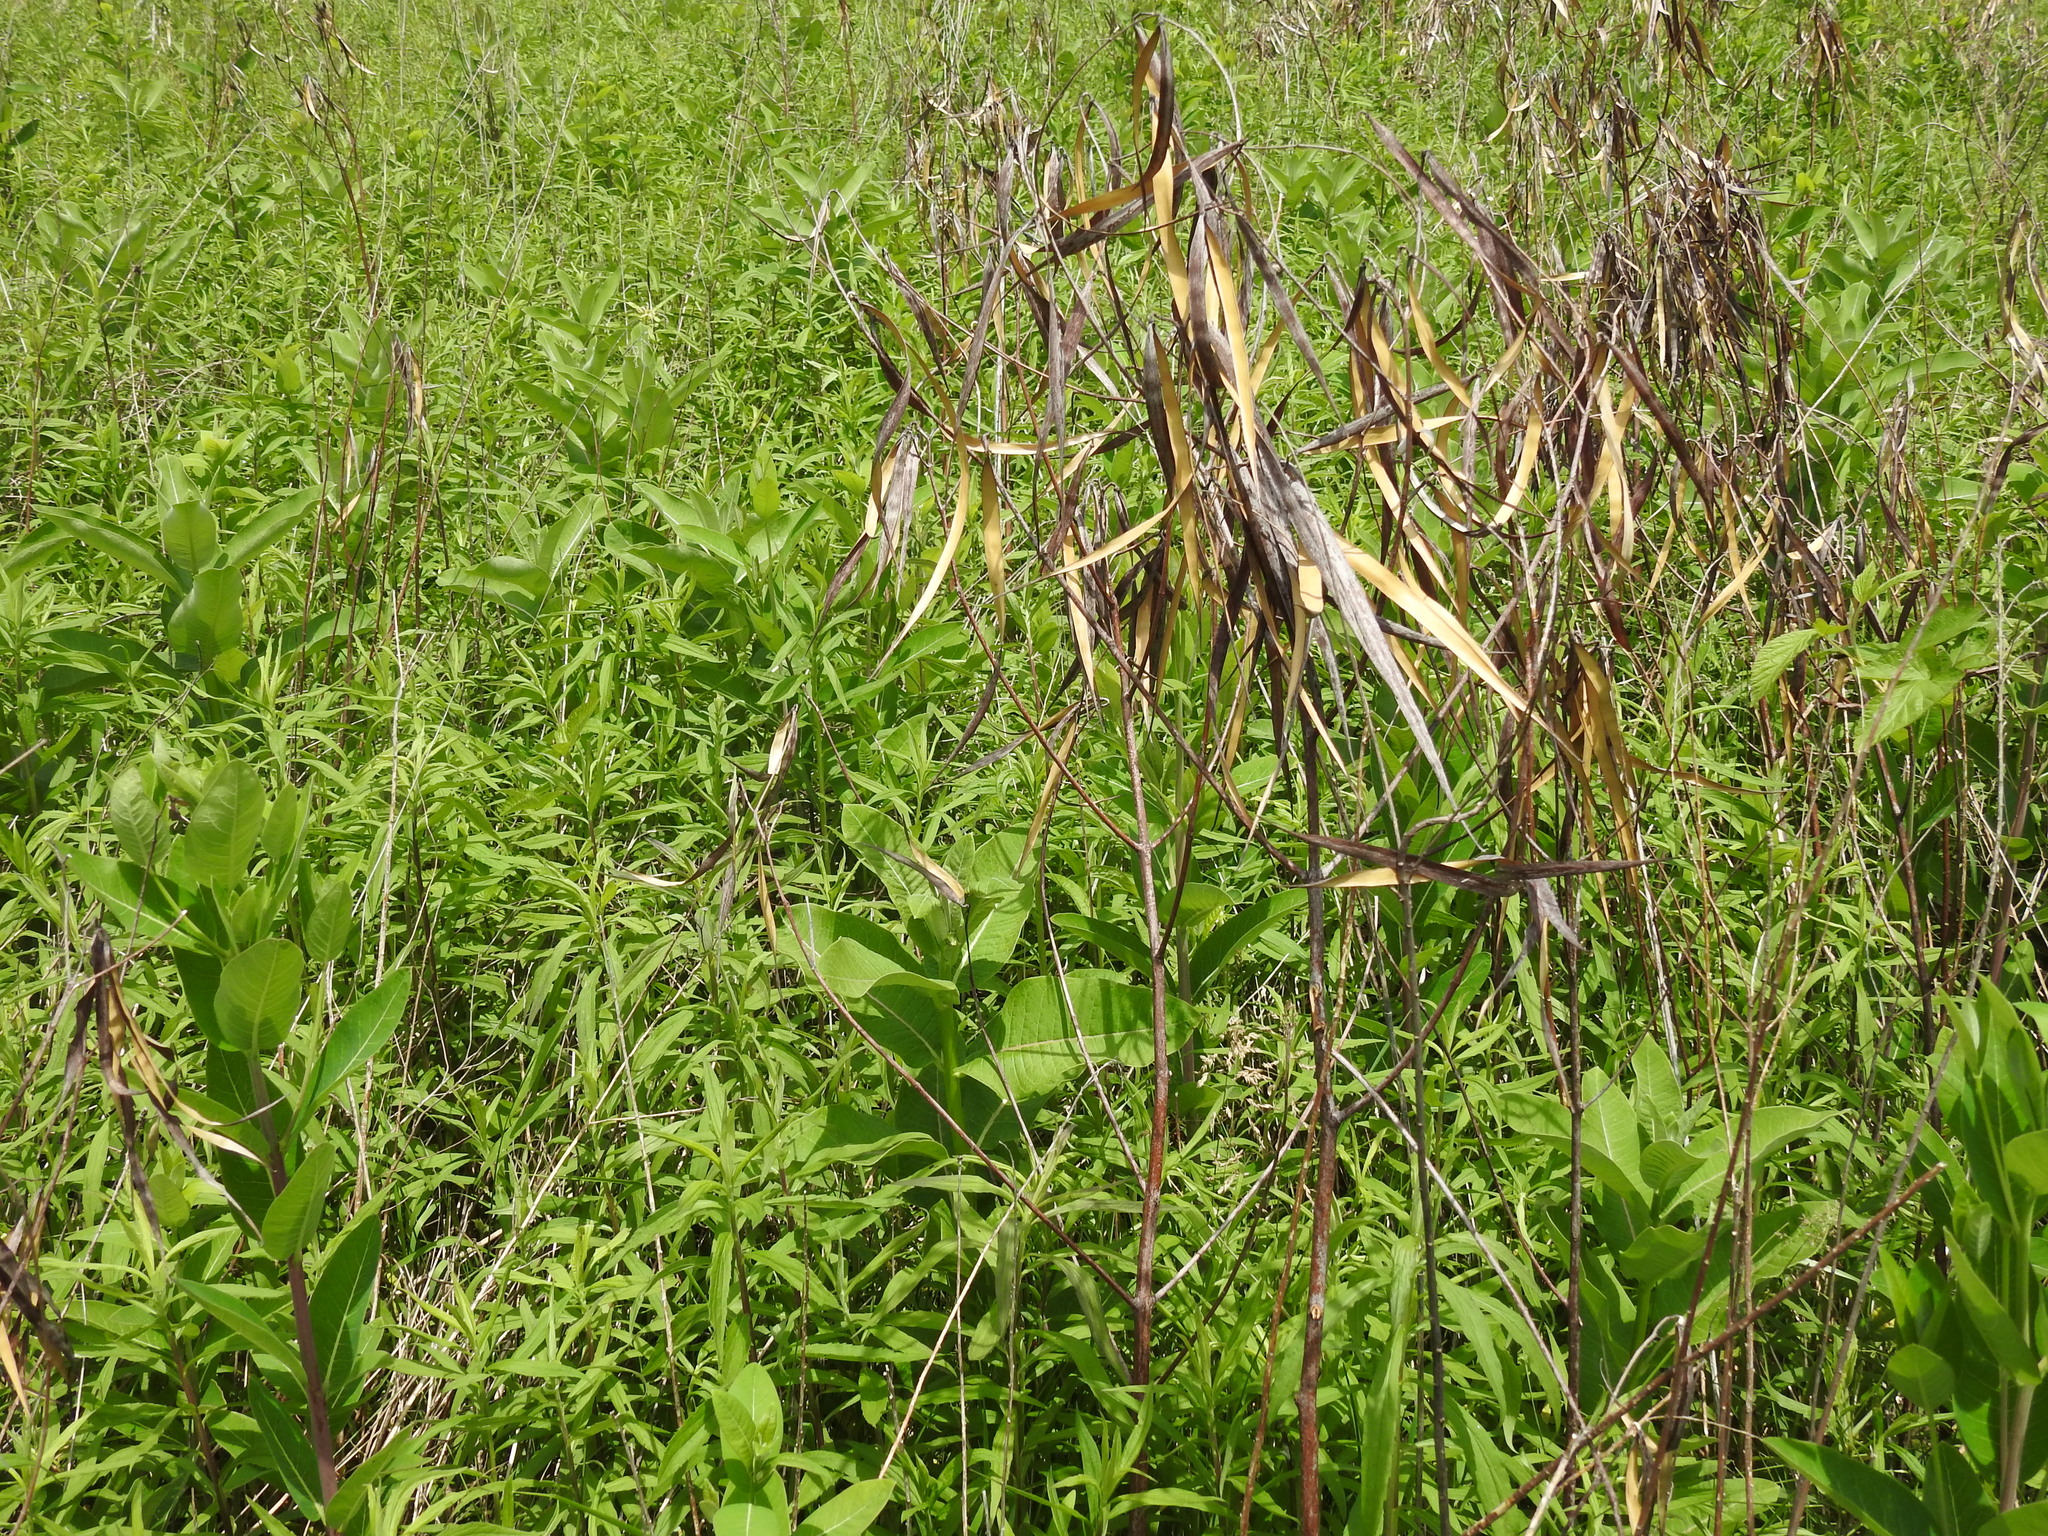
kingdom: Plantae
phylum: Tracheophyta
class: Magnoliopsida
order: Gentianales
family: Apocynaceae
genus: Apocynum
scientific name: Apocynum cannabinum
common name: Hemp dogbane
